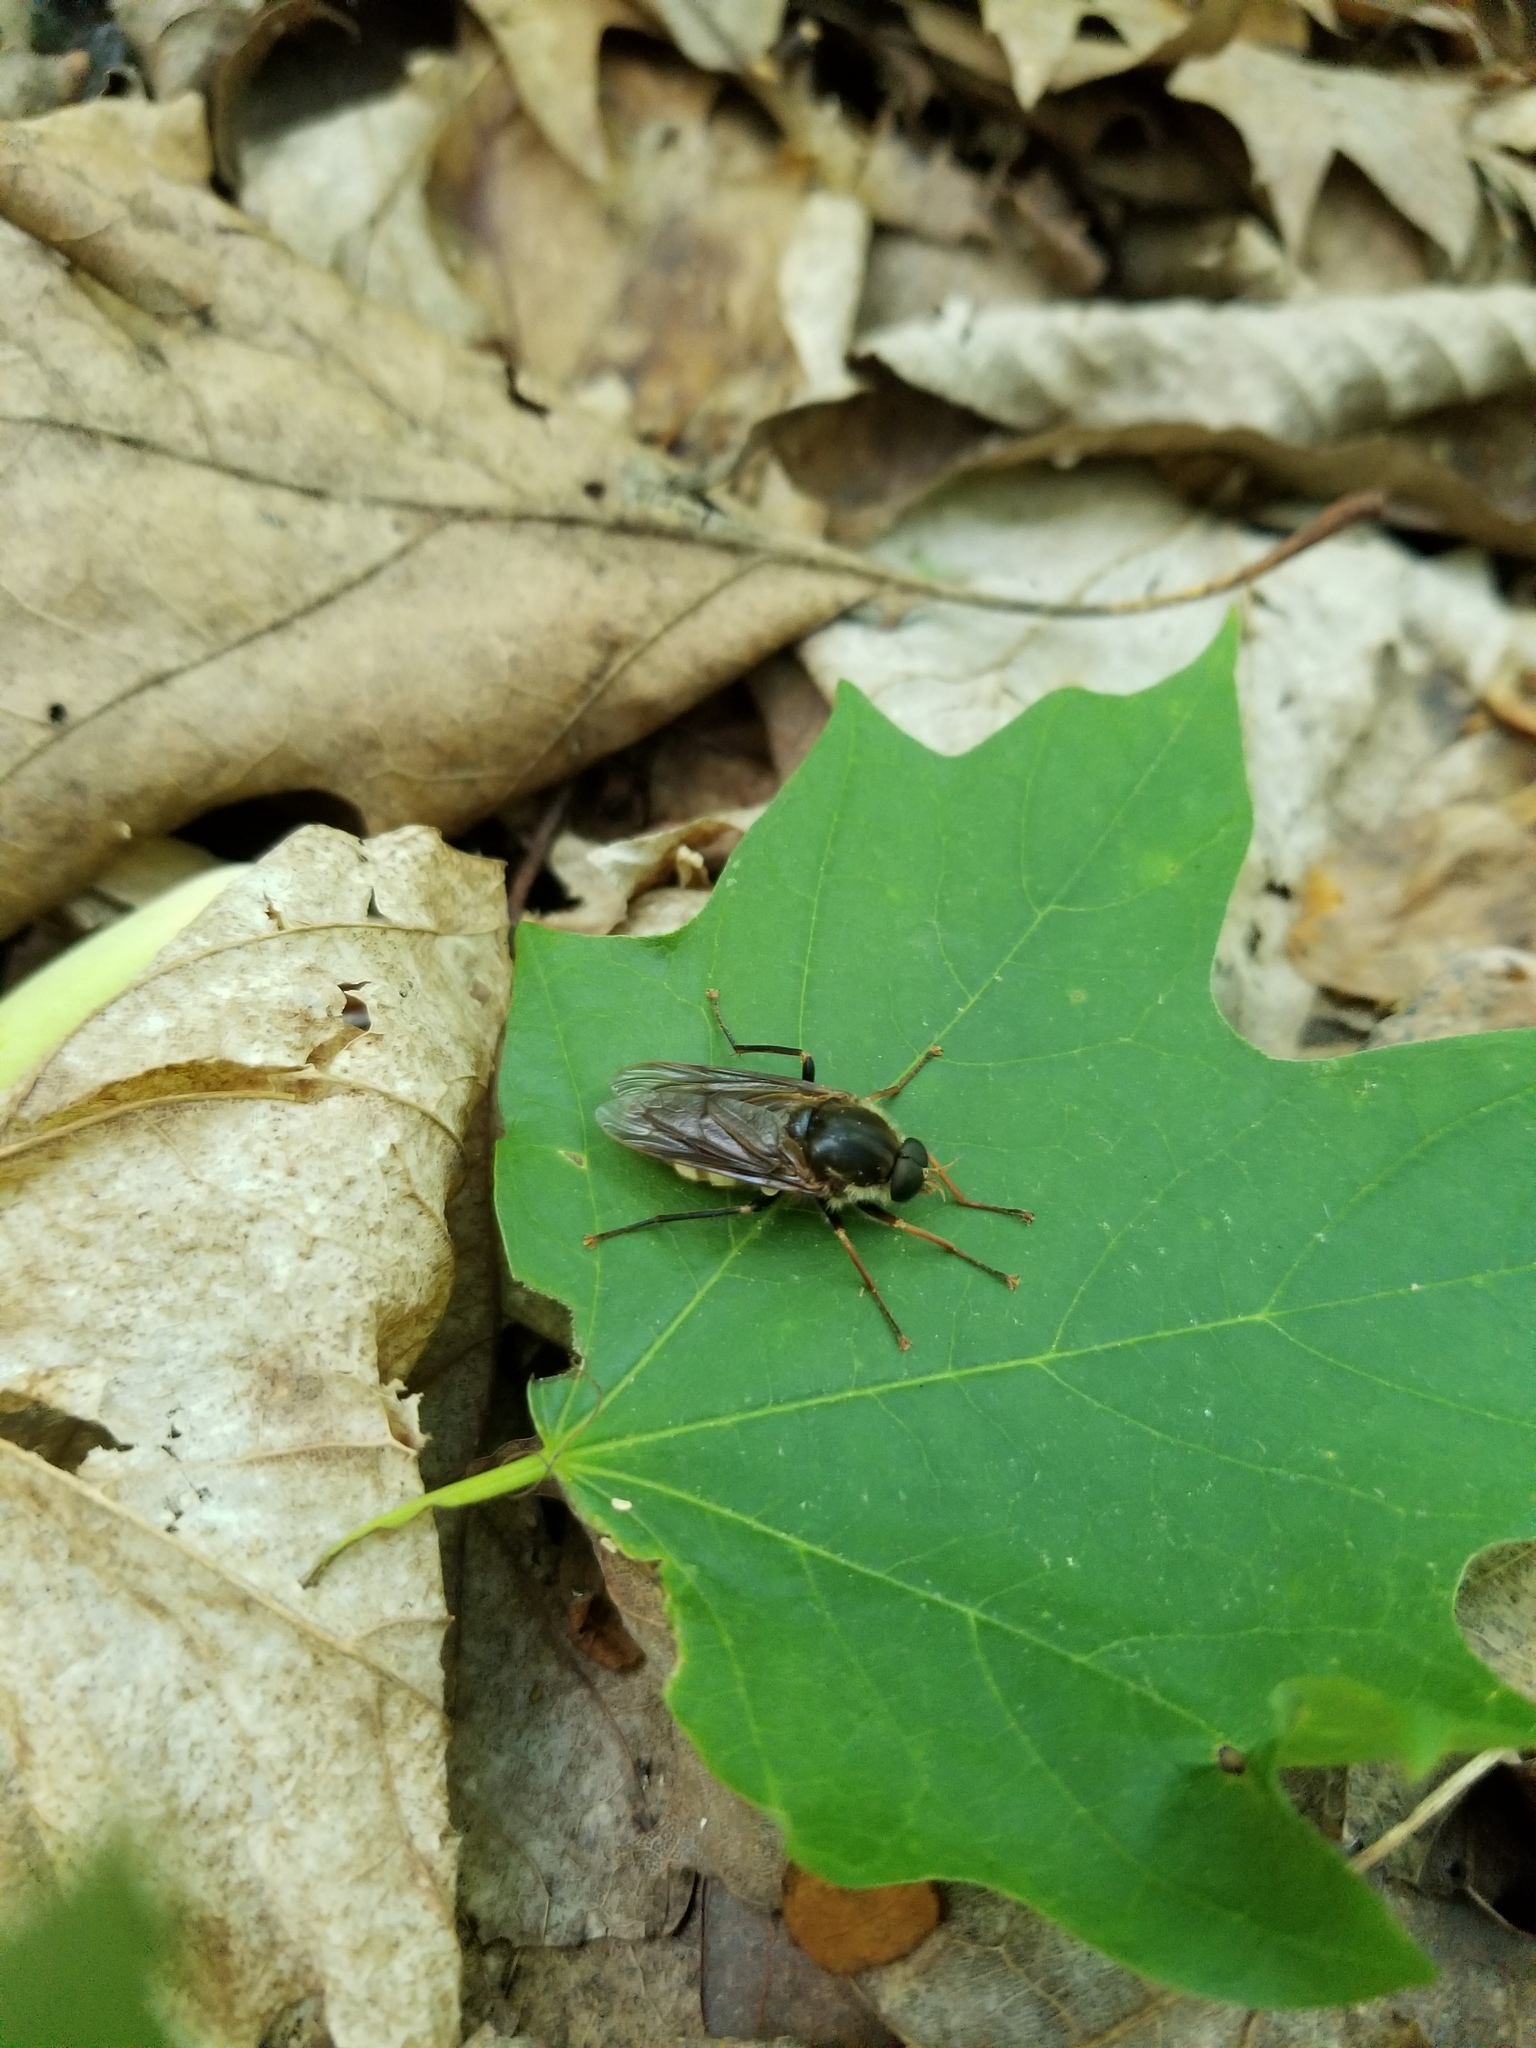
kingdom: Animalia
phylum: Arthropoda
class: Insecta
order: Diptera
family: Xylophagidae
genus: Coenomyia
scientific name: Coenomyia ferruginea
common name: Stink fly
